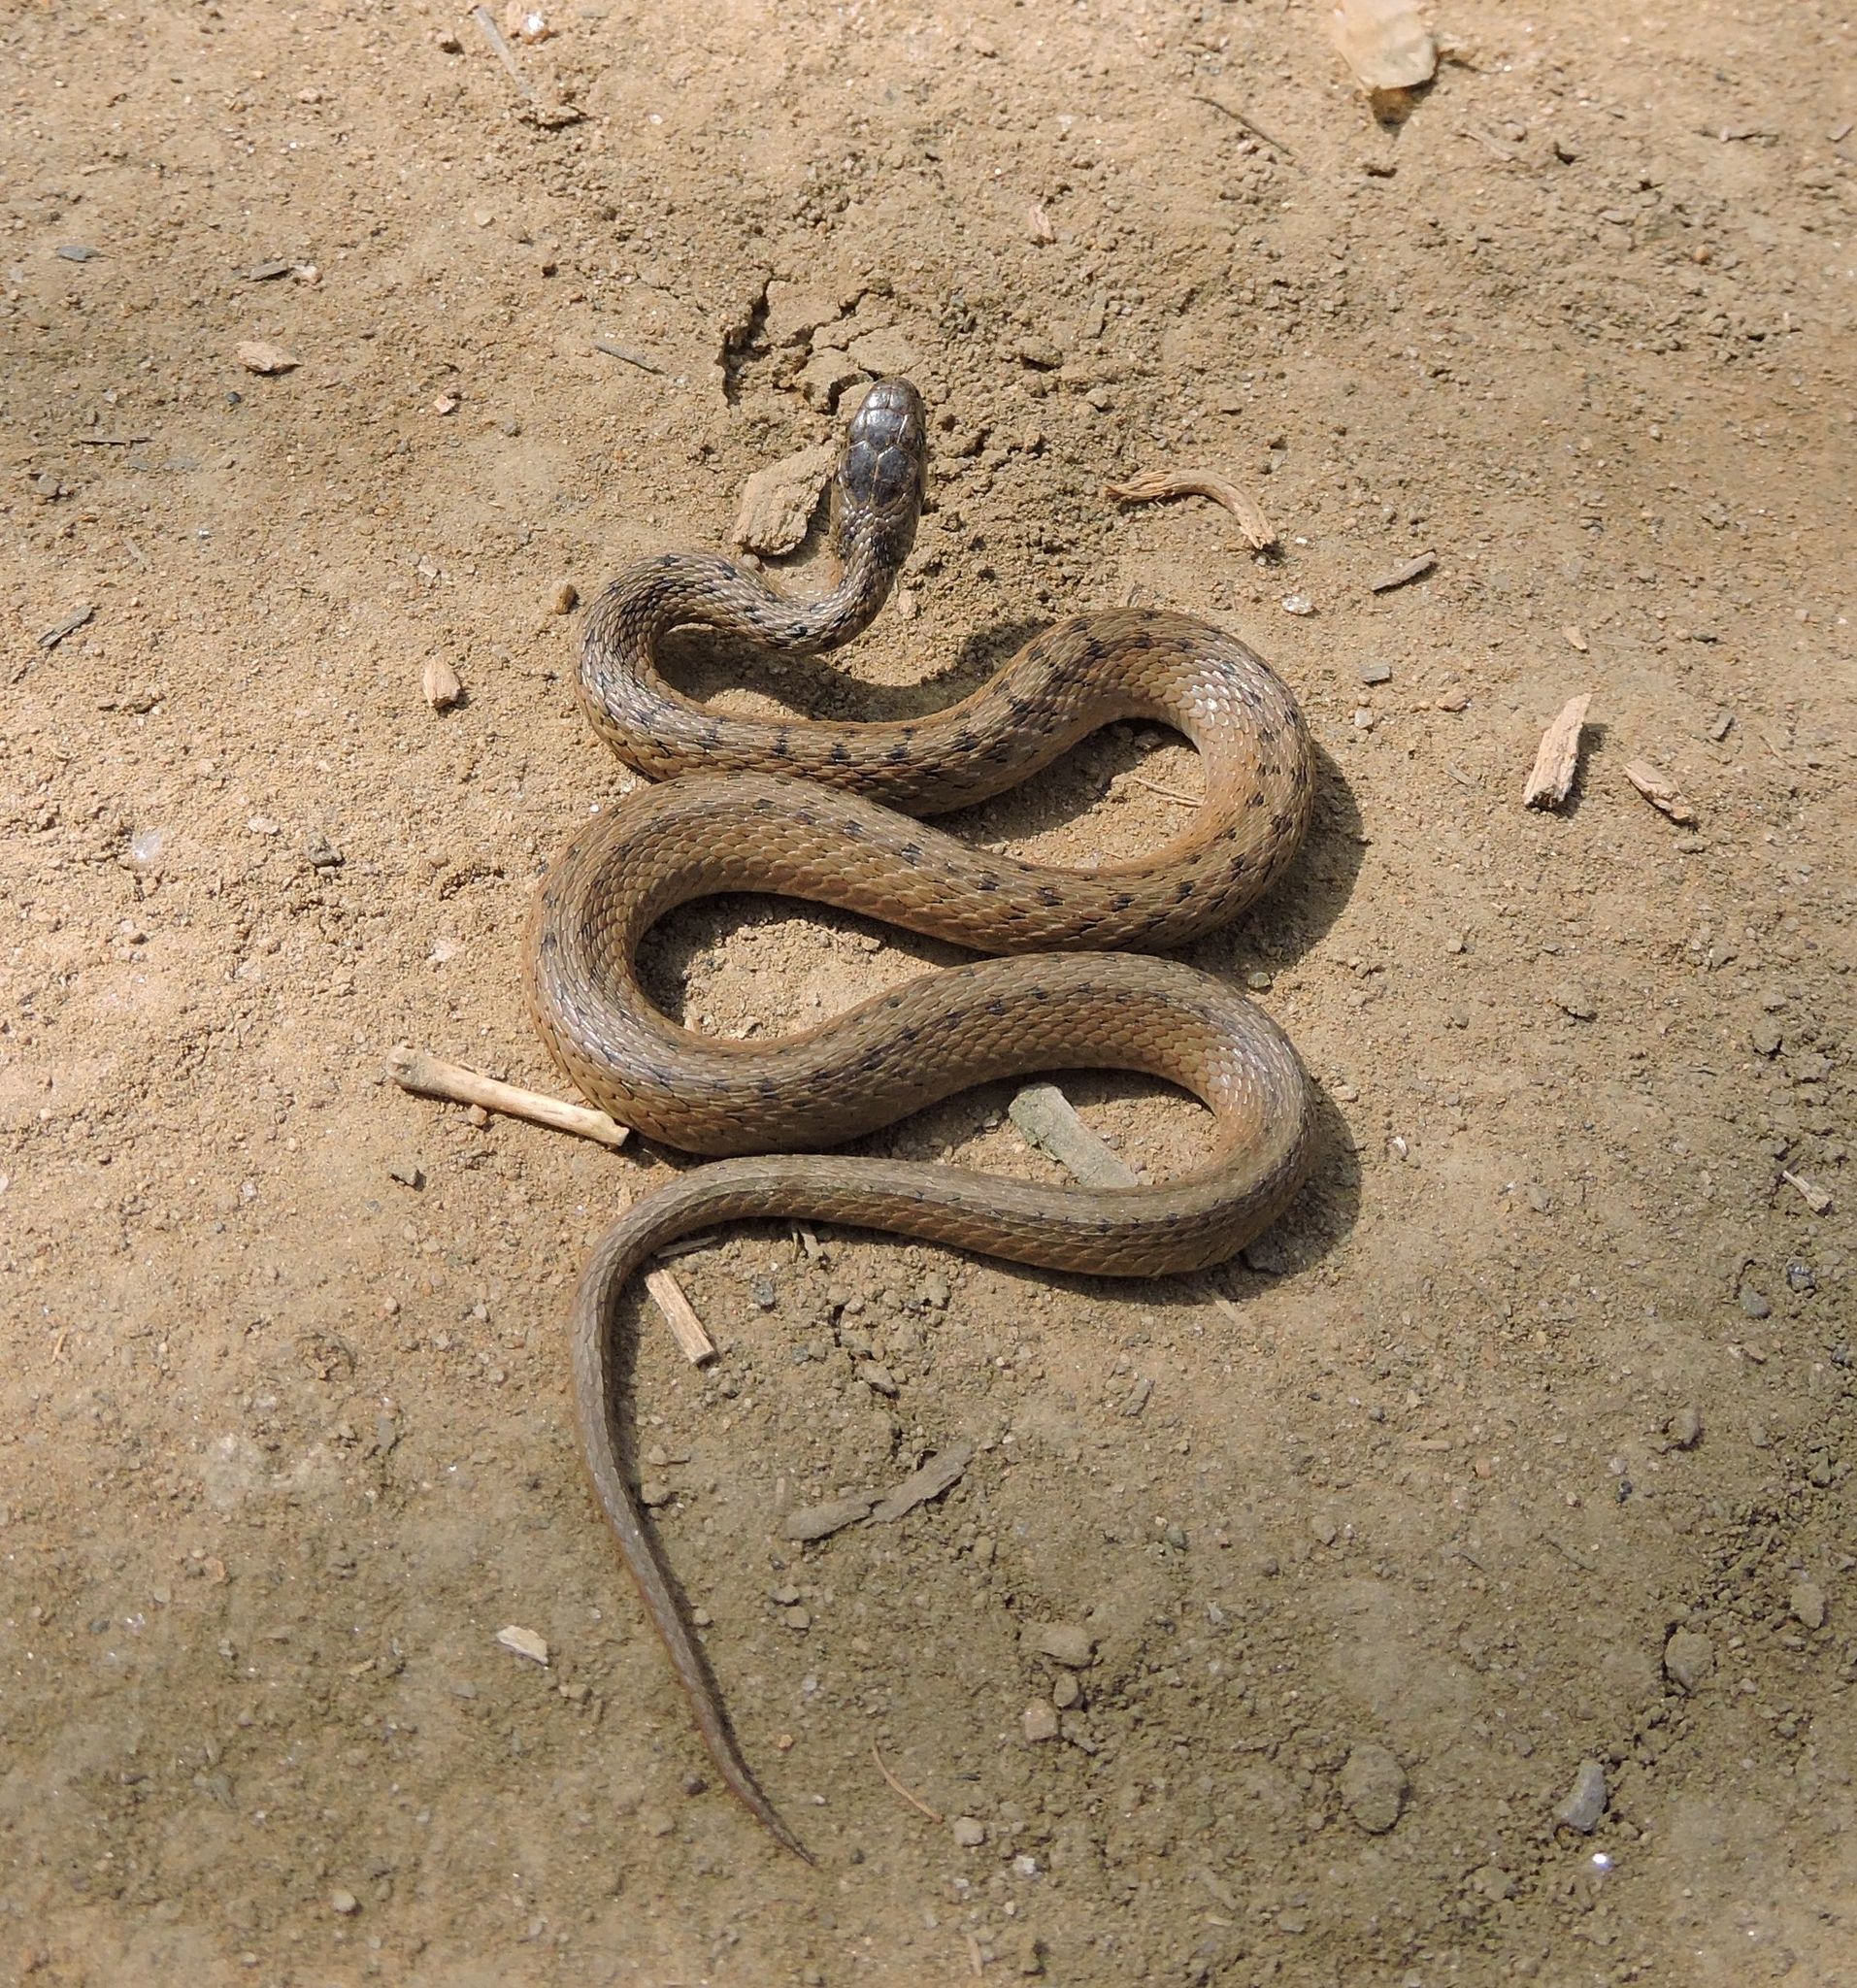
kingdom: Animalia
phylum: Chordata
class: Squamata
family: Colubridae
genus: Storeria
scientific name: Storeria dekayi
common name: (dekay’s) brown snake
